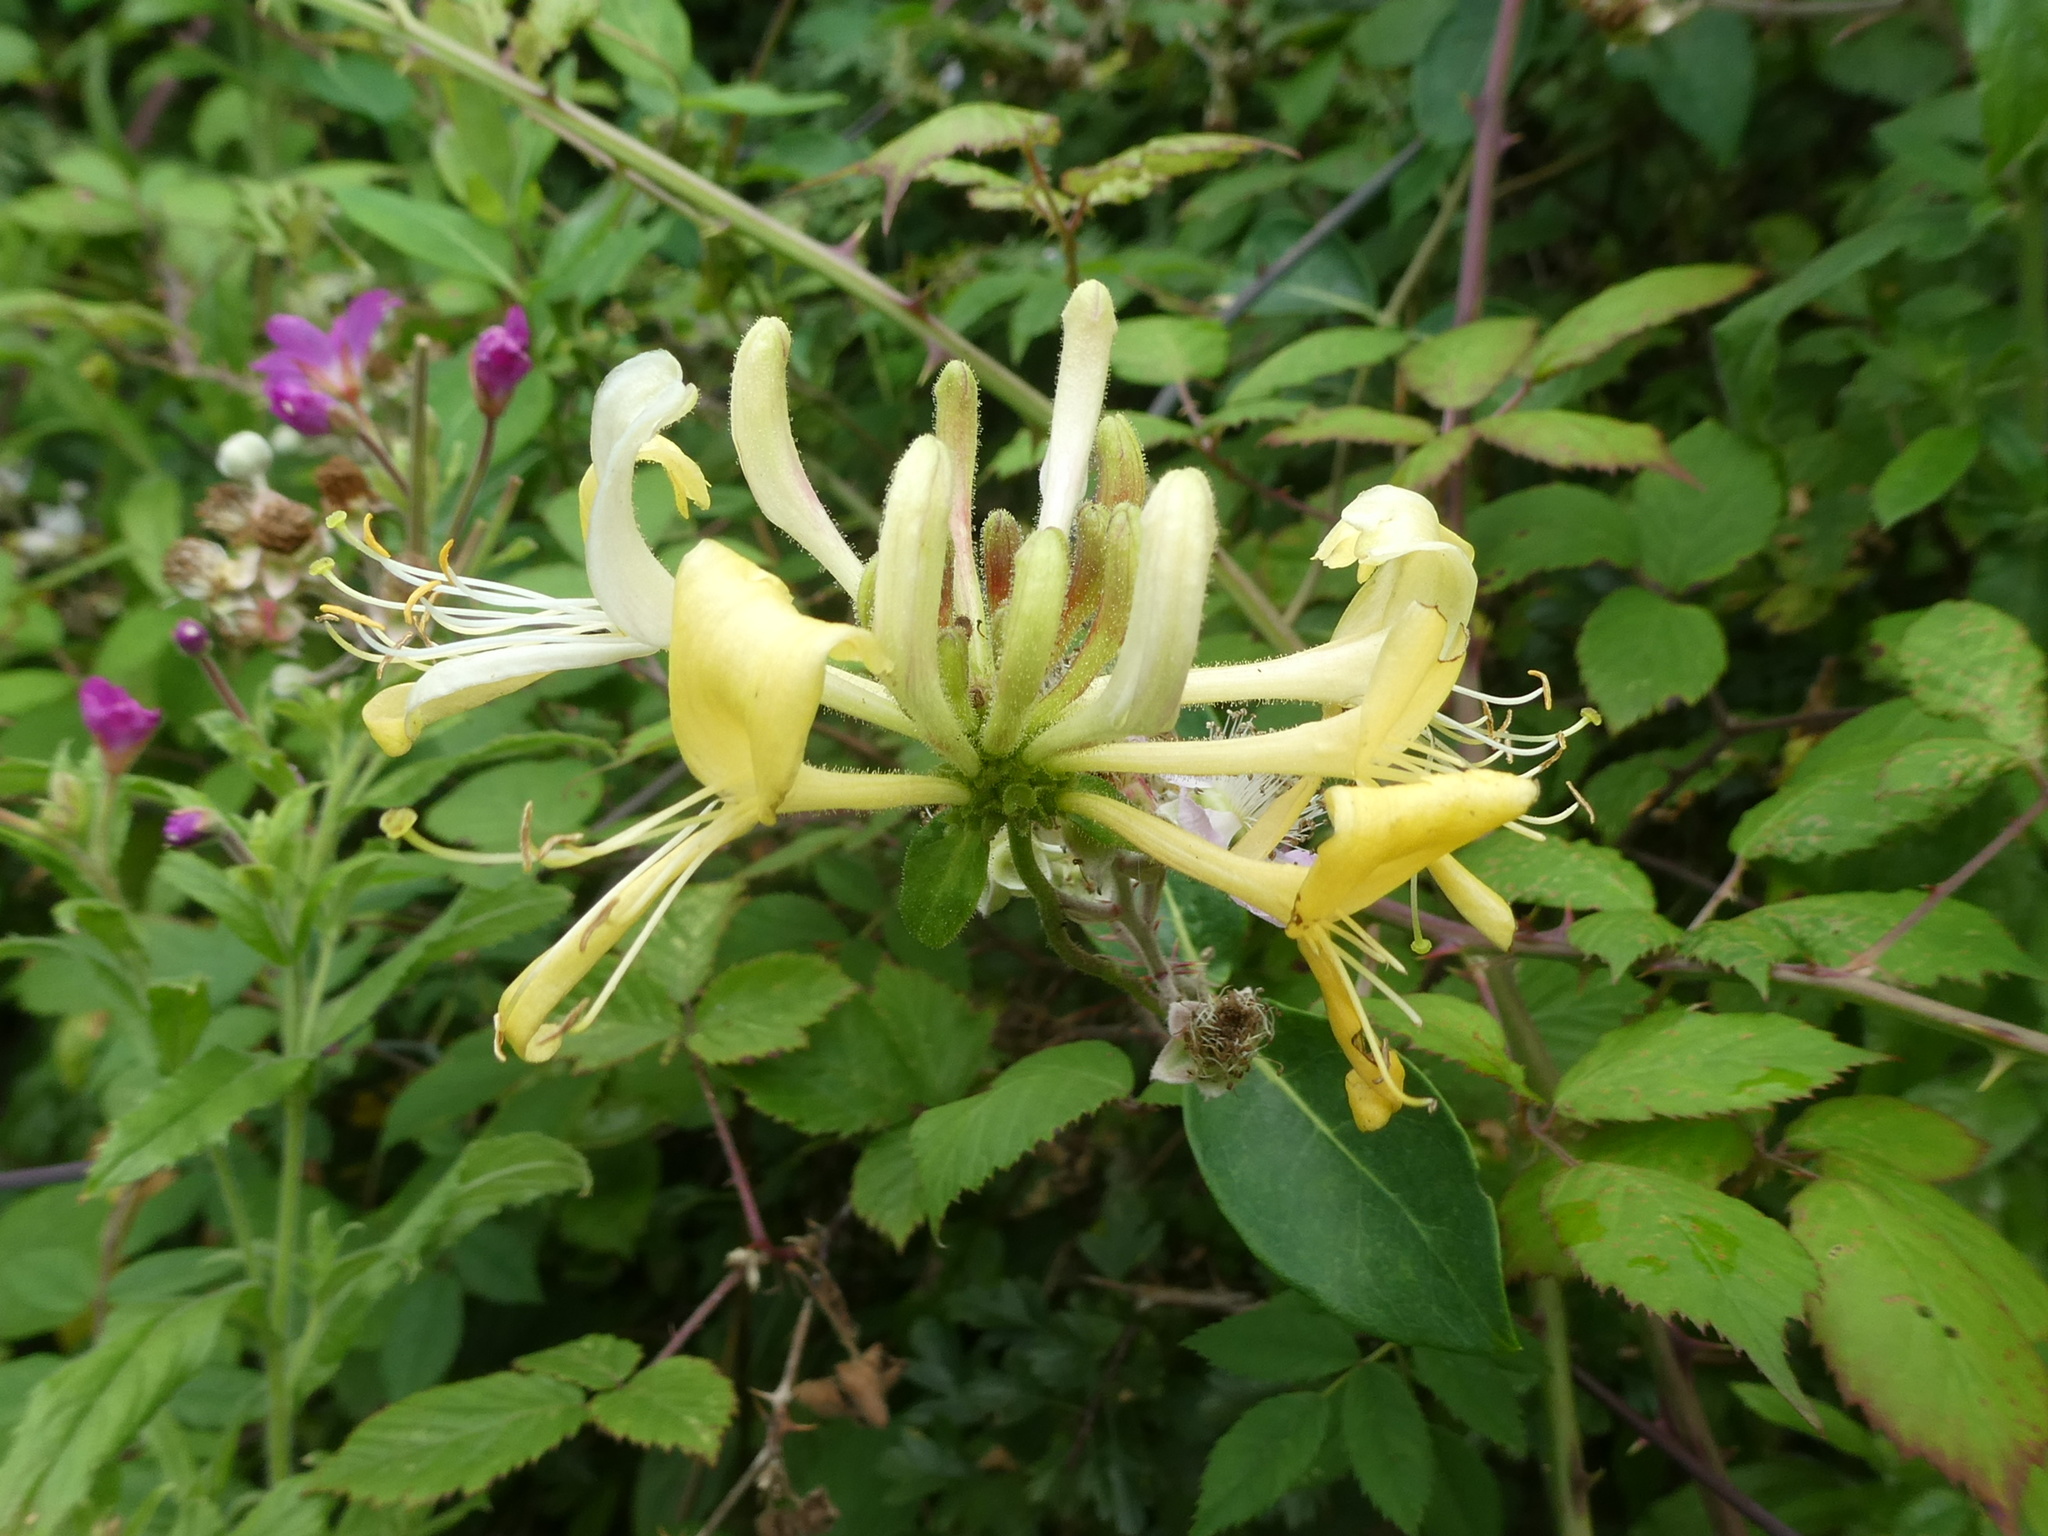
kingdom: Plantae
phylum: Tracheophyta
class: Magnoliopsida
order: Dipsacales
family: Caprifoliaceae
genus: Lonicera
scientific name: Lonicera periclymenum
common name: European honeysuckle
